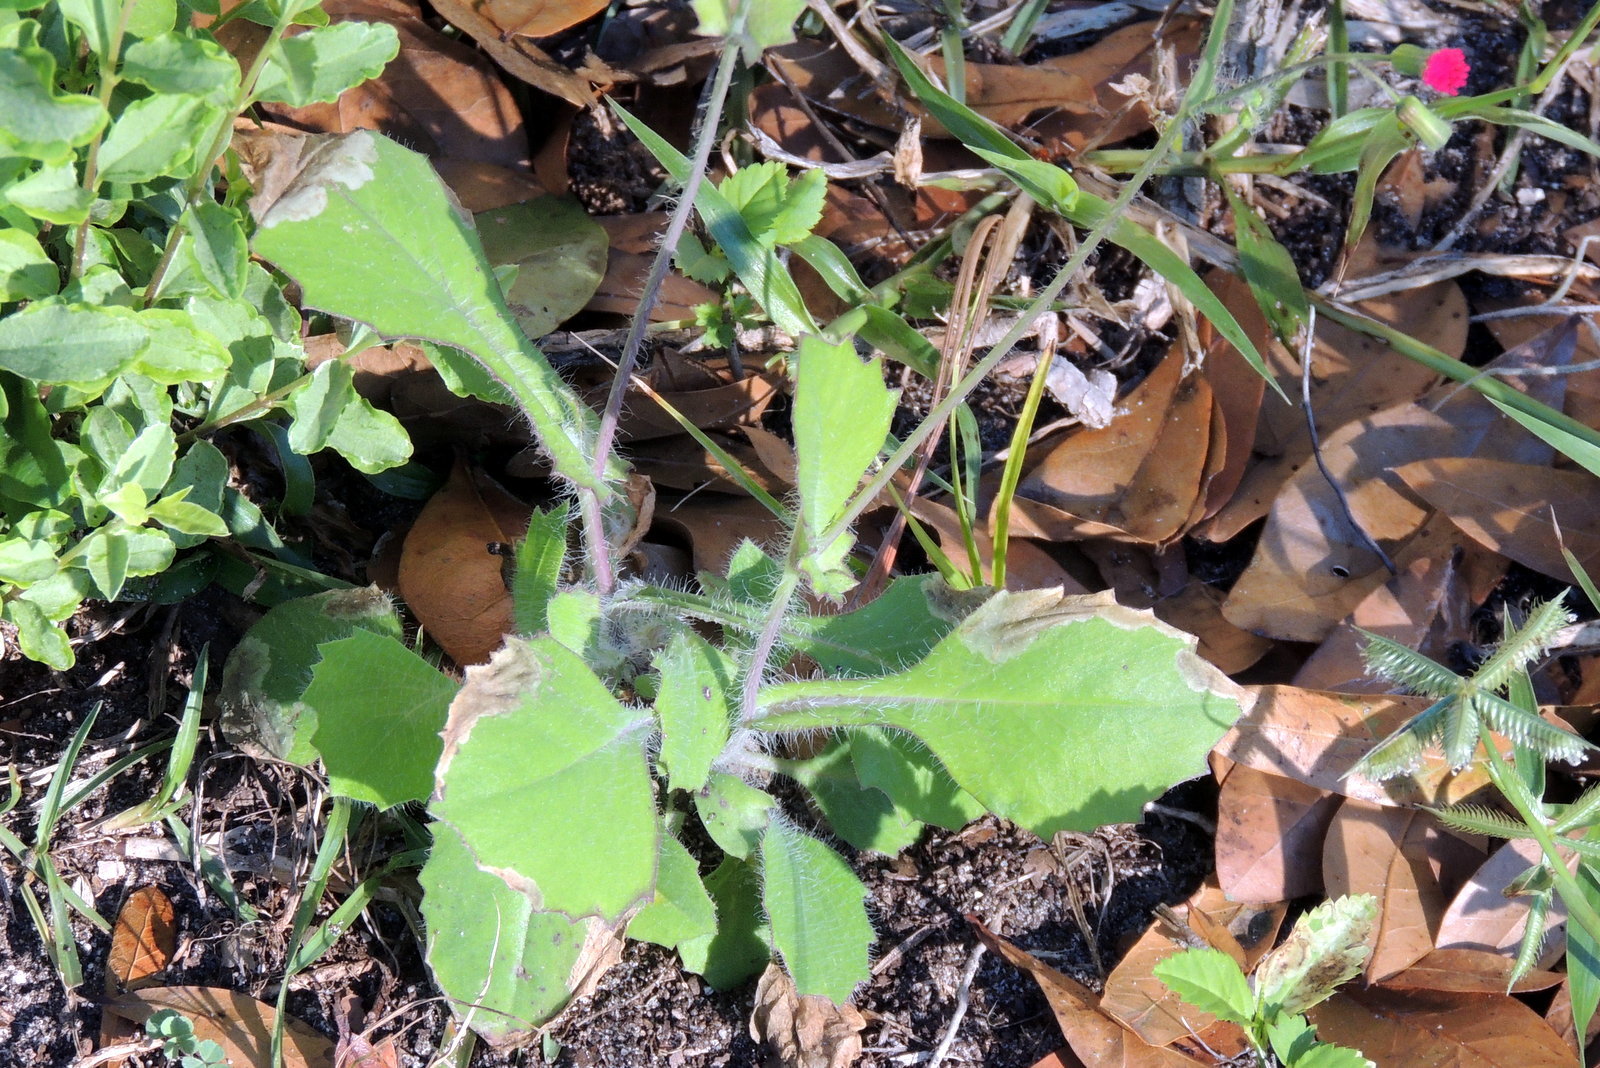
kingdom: Plantae
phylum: Tracheophyta
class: Magnoliopsida
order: Asterales
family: Asteraceae
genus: Emilia
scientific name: Emilia sonchifolia
